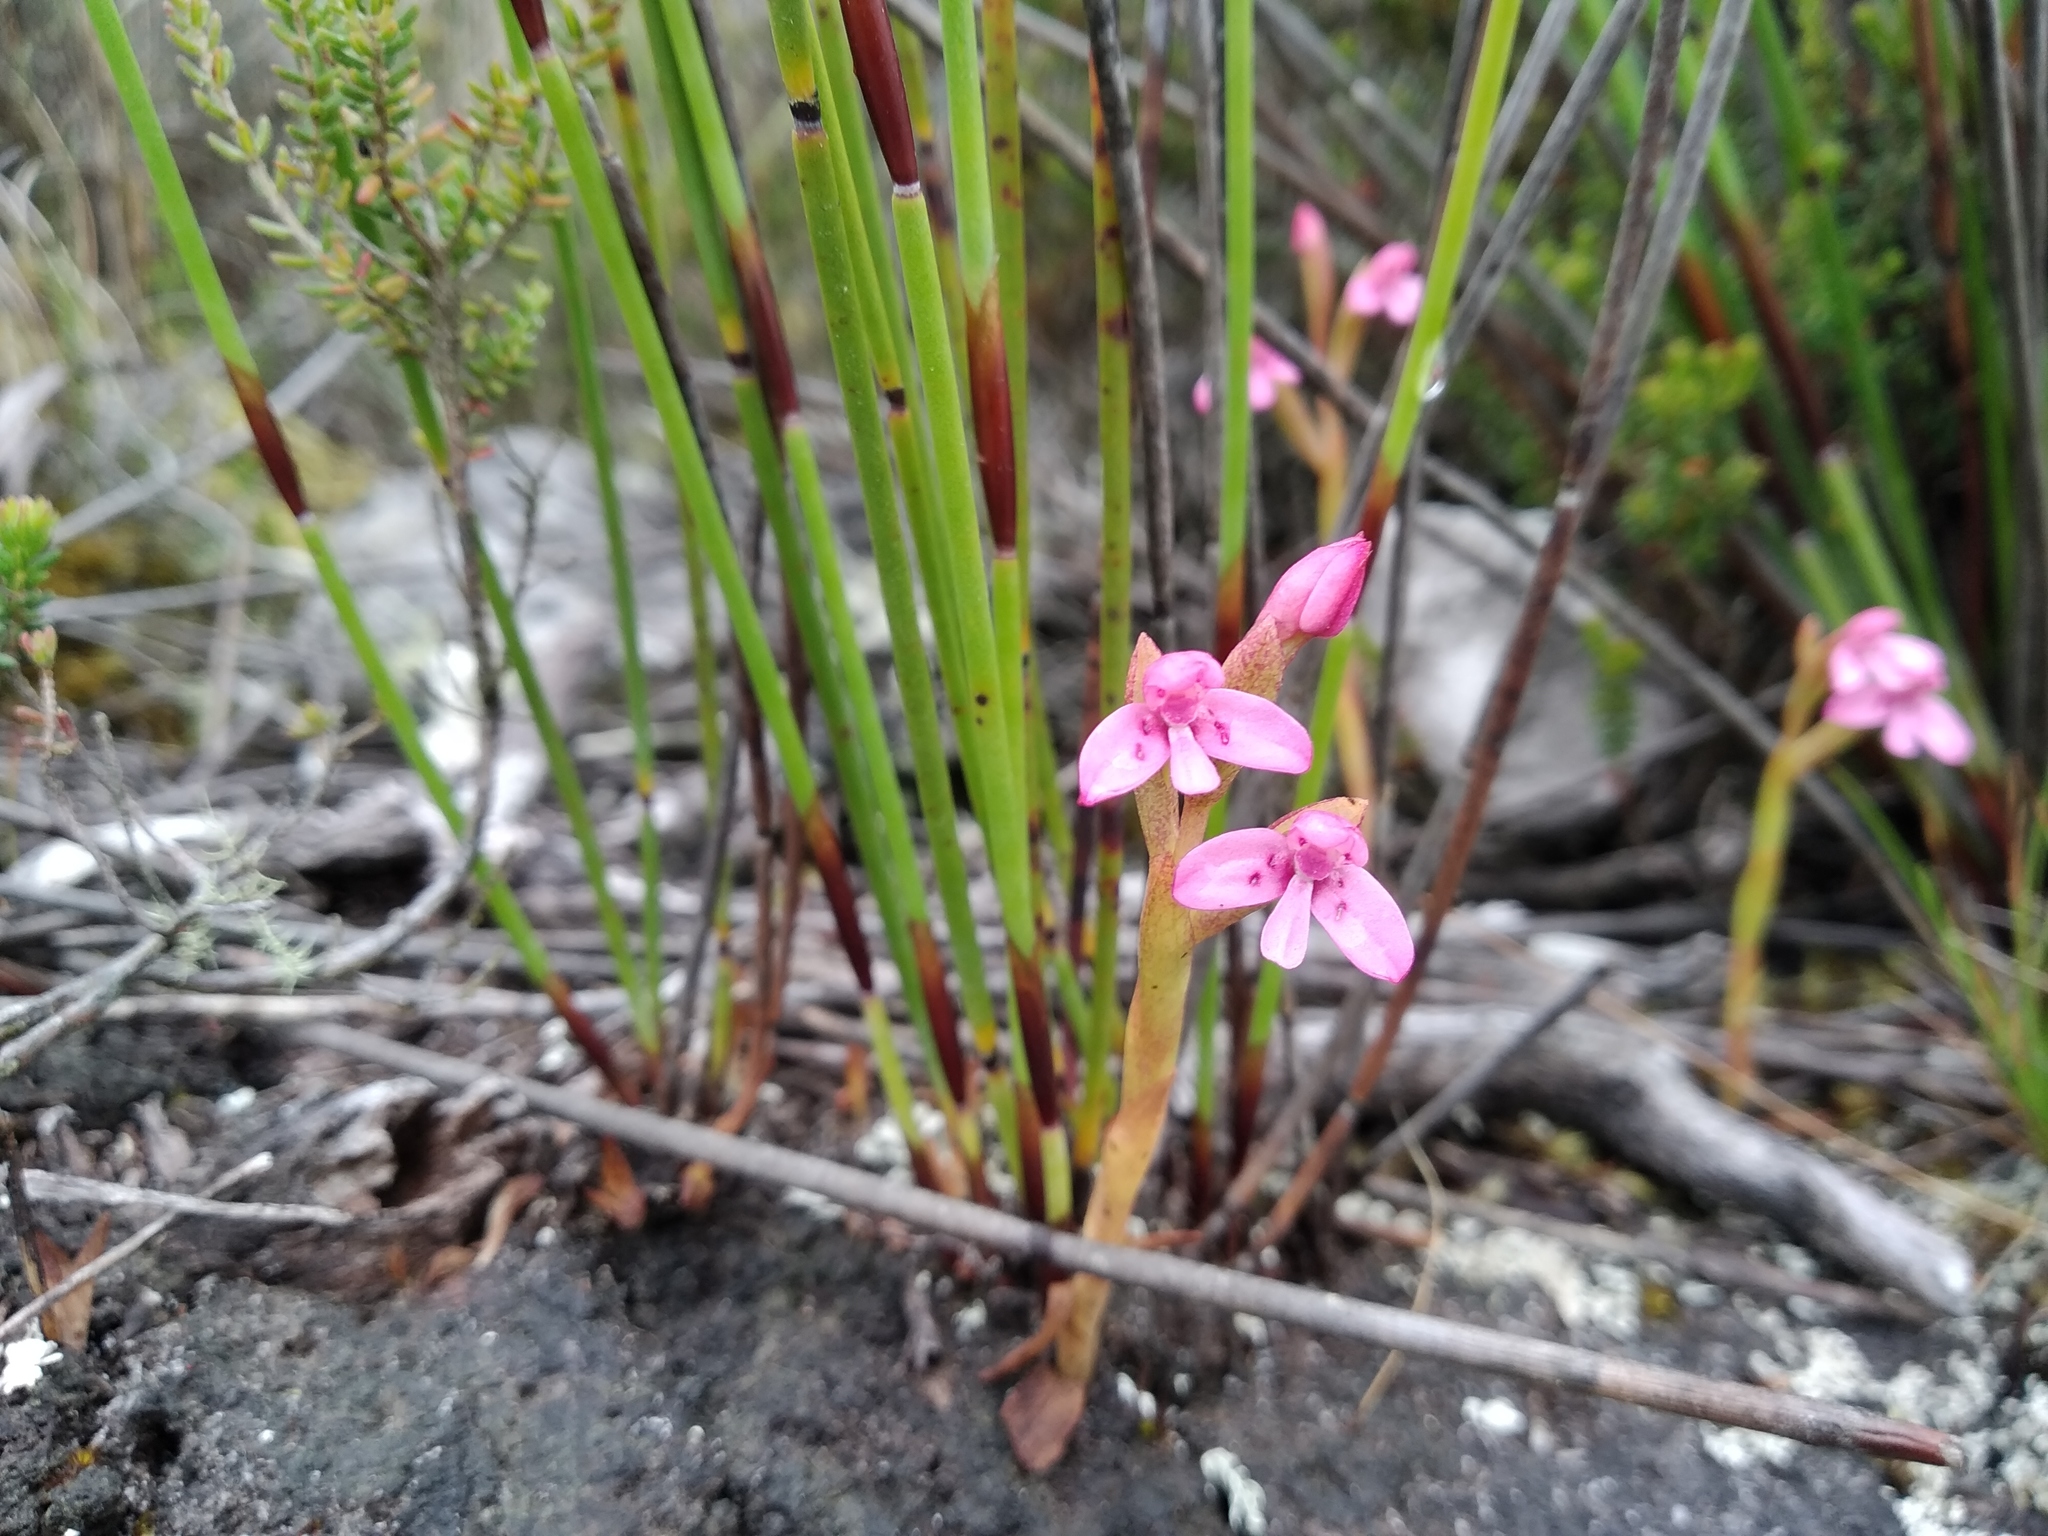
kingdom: Plantae
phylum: Tracheophyta
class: Liliopsida
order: Asparagales
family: Orchidaceae
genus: Disa
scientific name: Disa vaginata
